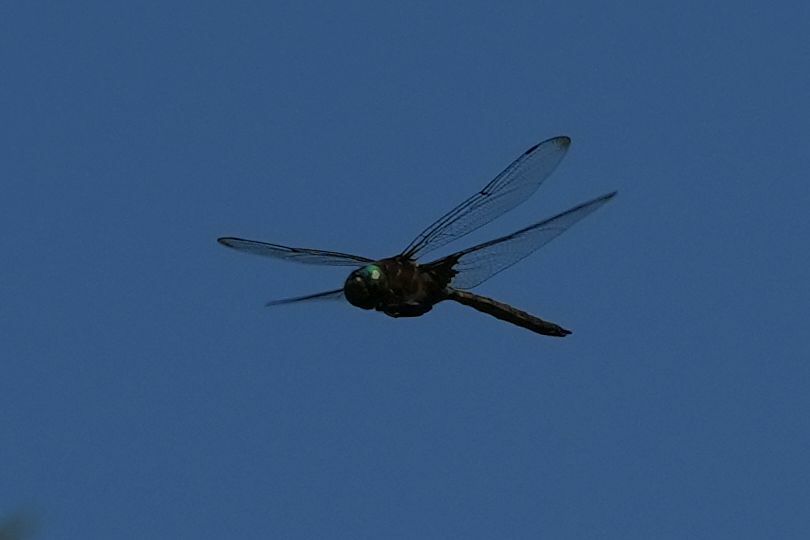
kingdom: Animalia
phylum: Arthropoda
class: Insecta
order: Odonata
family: Corduliidae
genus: Epitheca
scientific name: Epitheca princeps
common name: Prince baskettail
